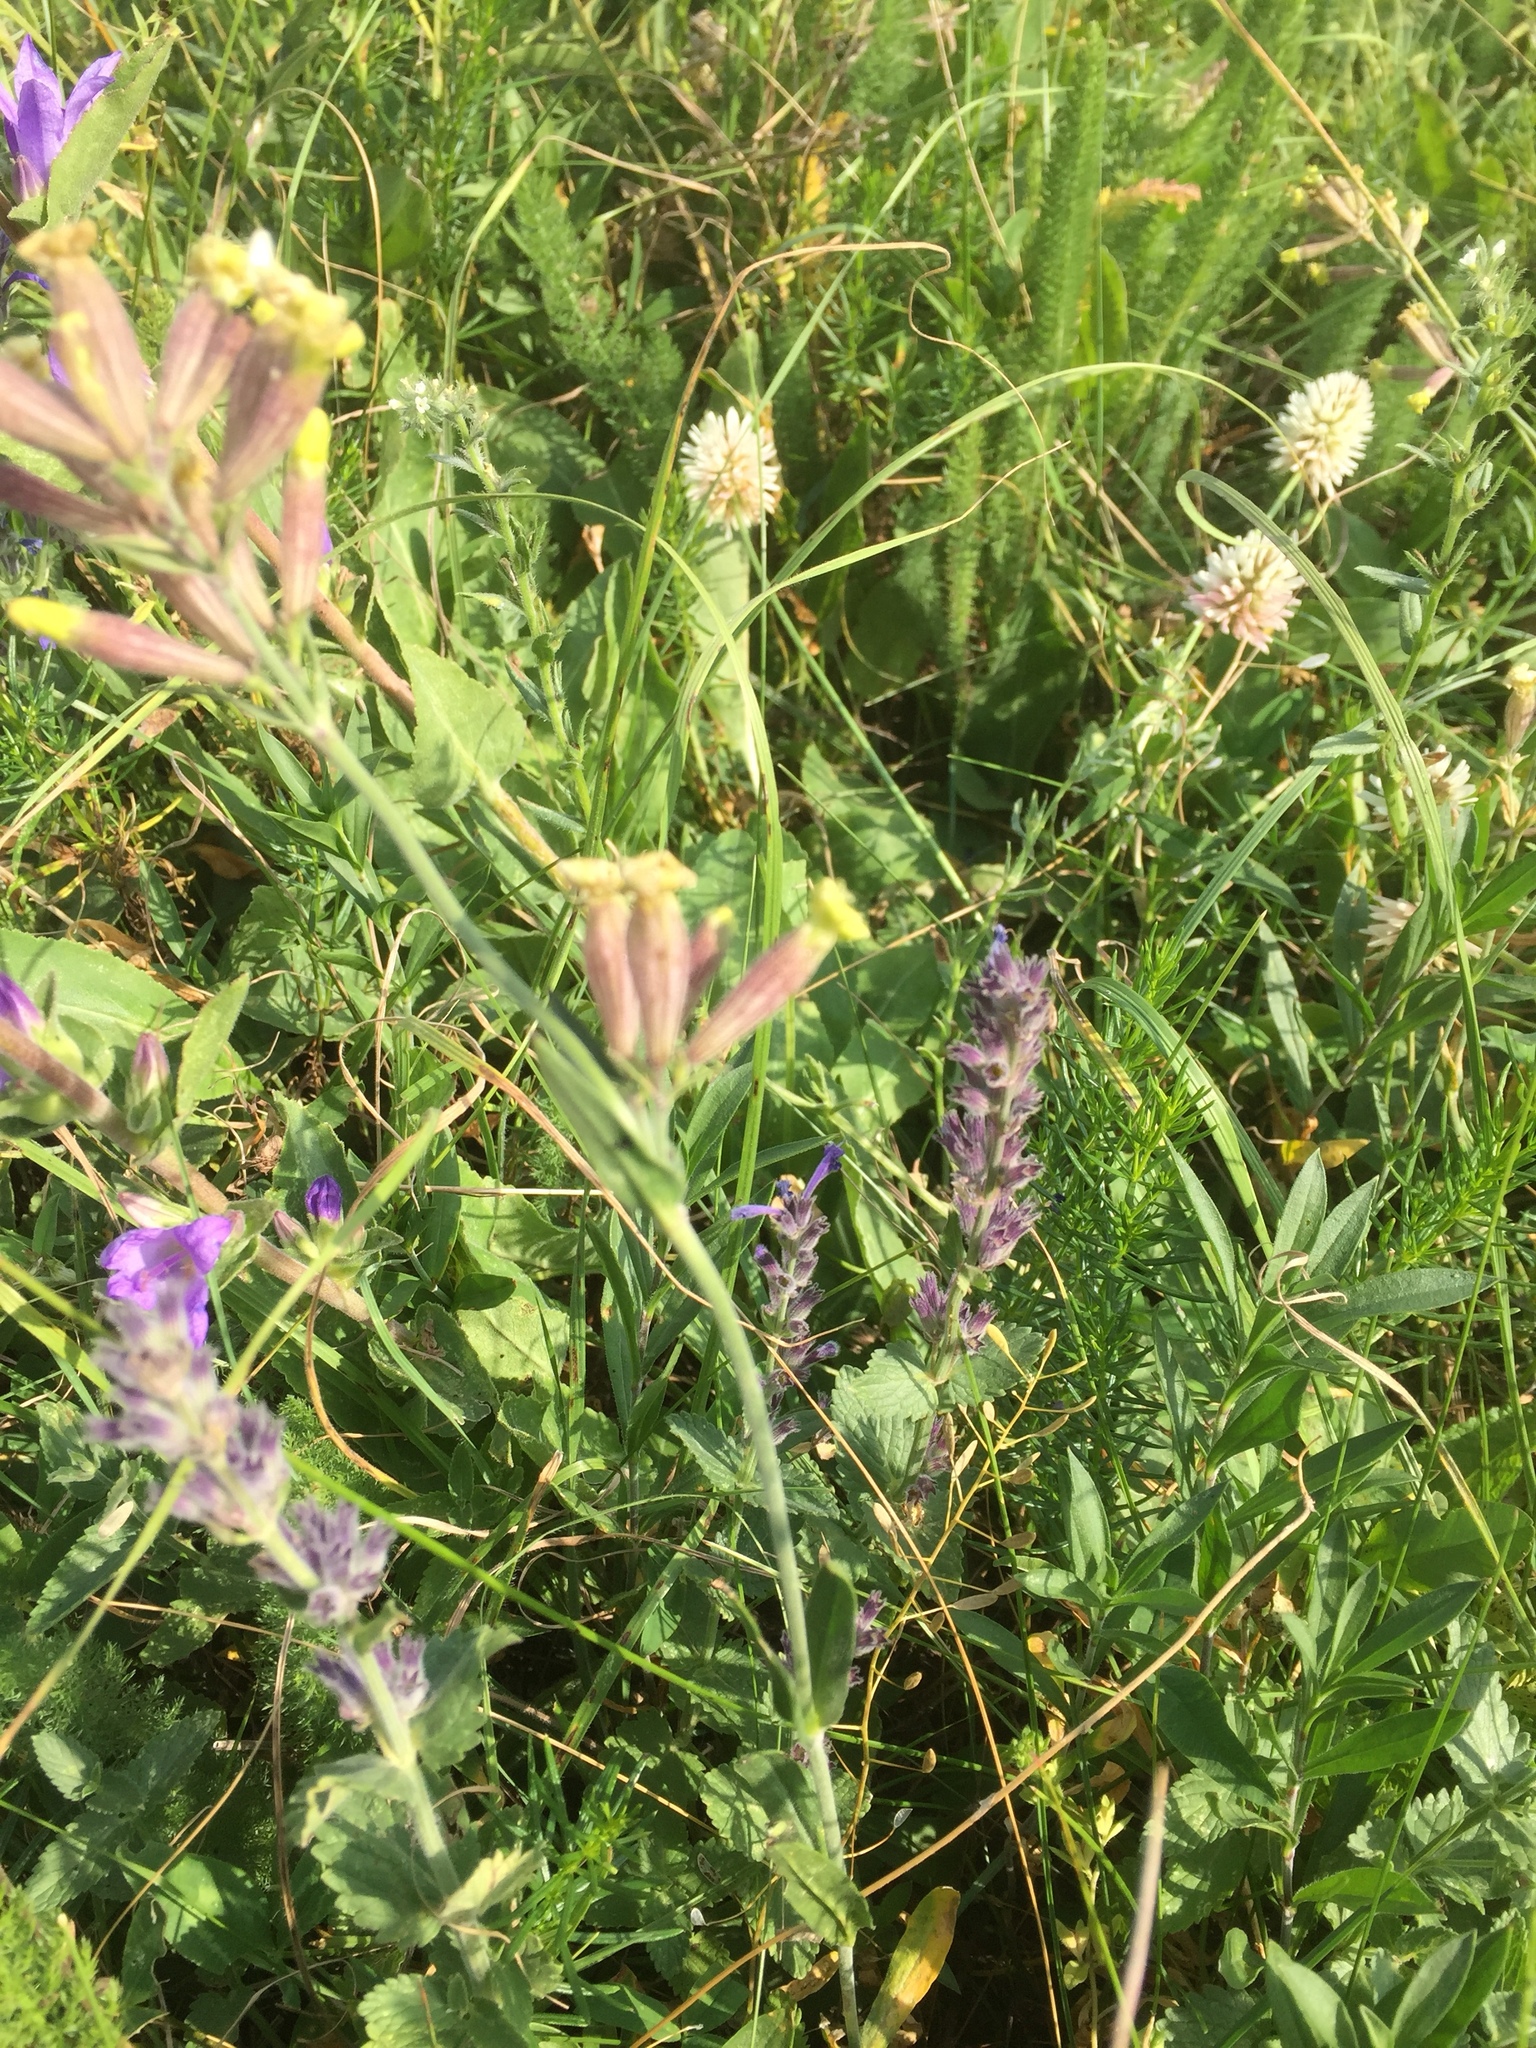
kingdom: Plantae
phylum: Tracheophyta
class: Magnoliopsida
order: Caryophyllales
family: Caryophyllaceae
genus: Silene
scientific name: Silene otites
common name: Spanish catchfly
